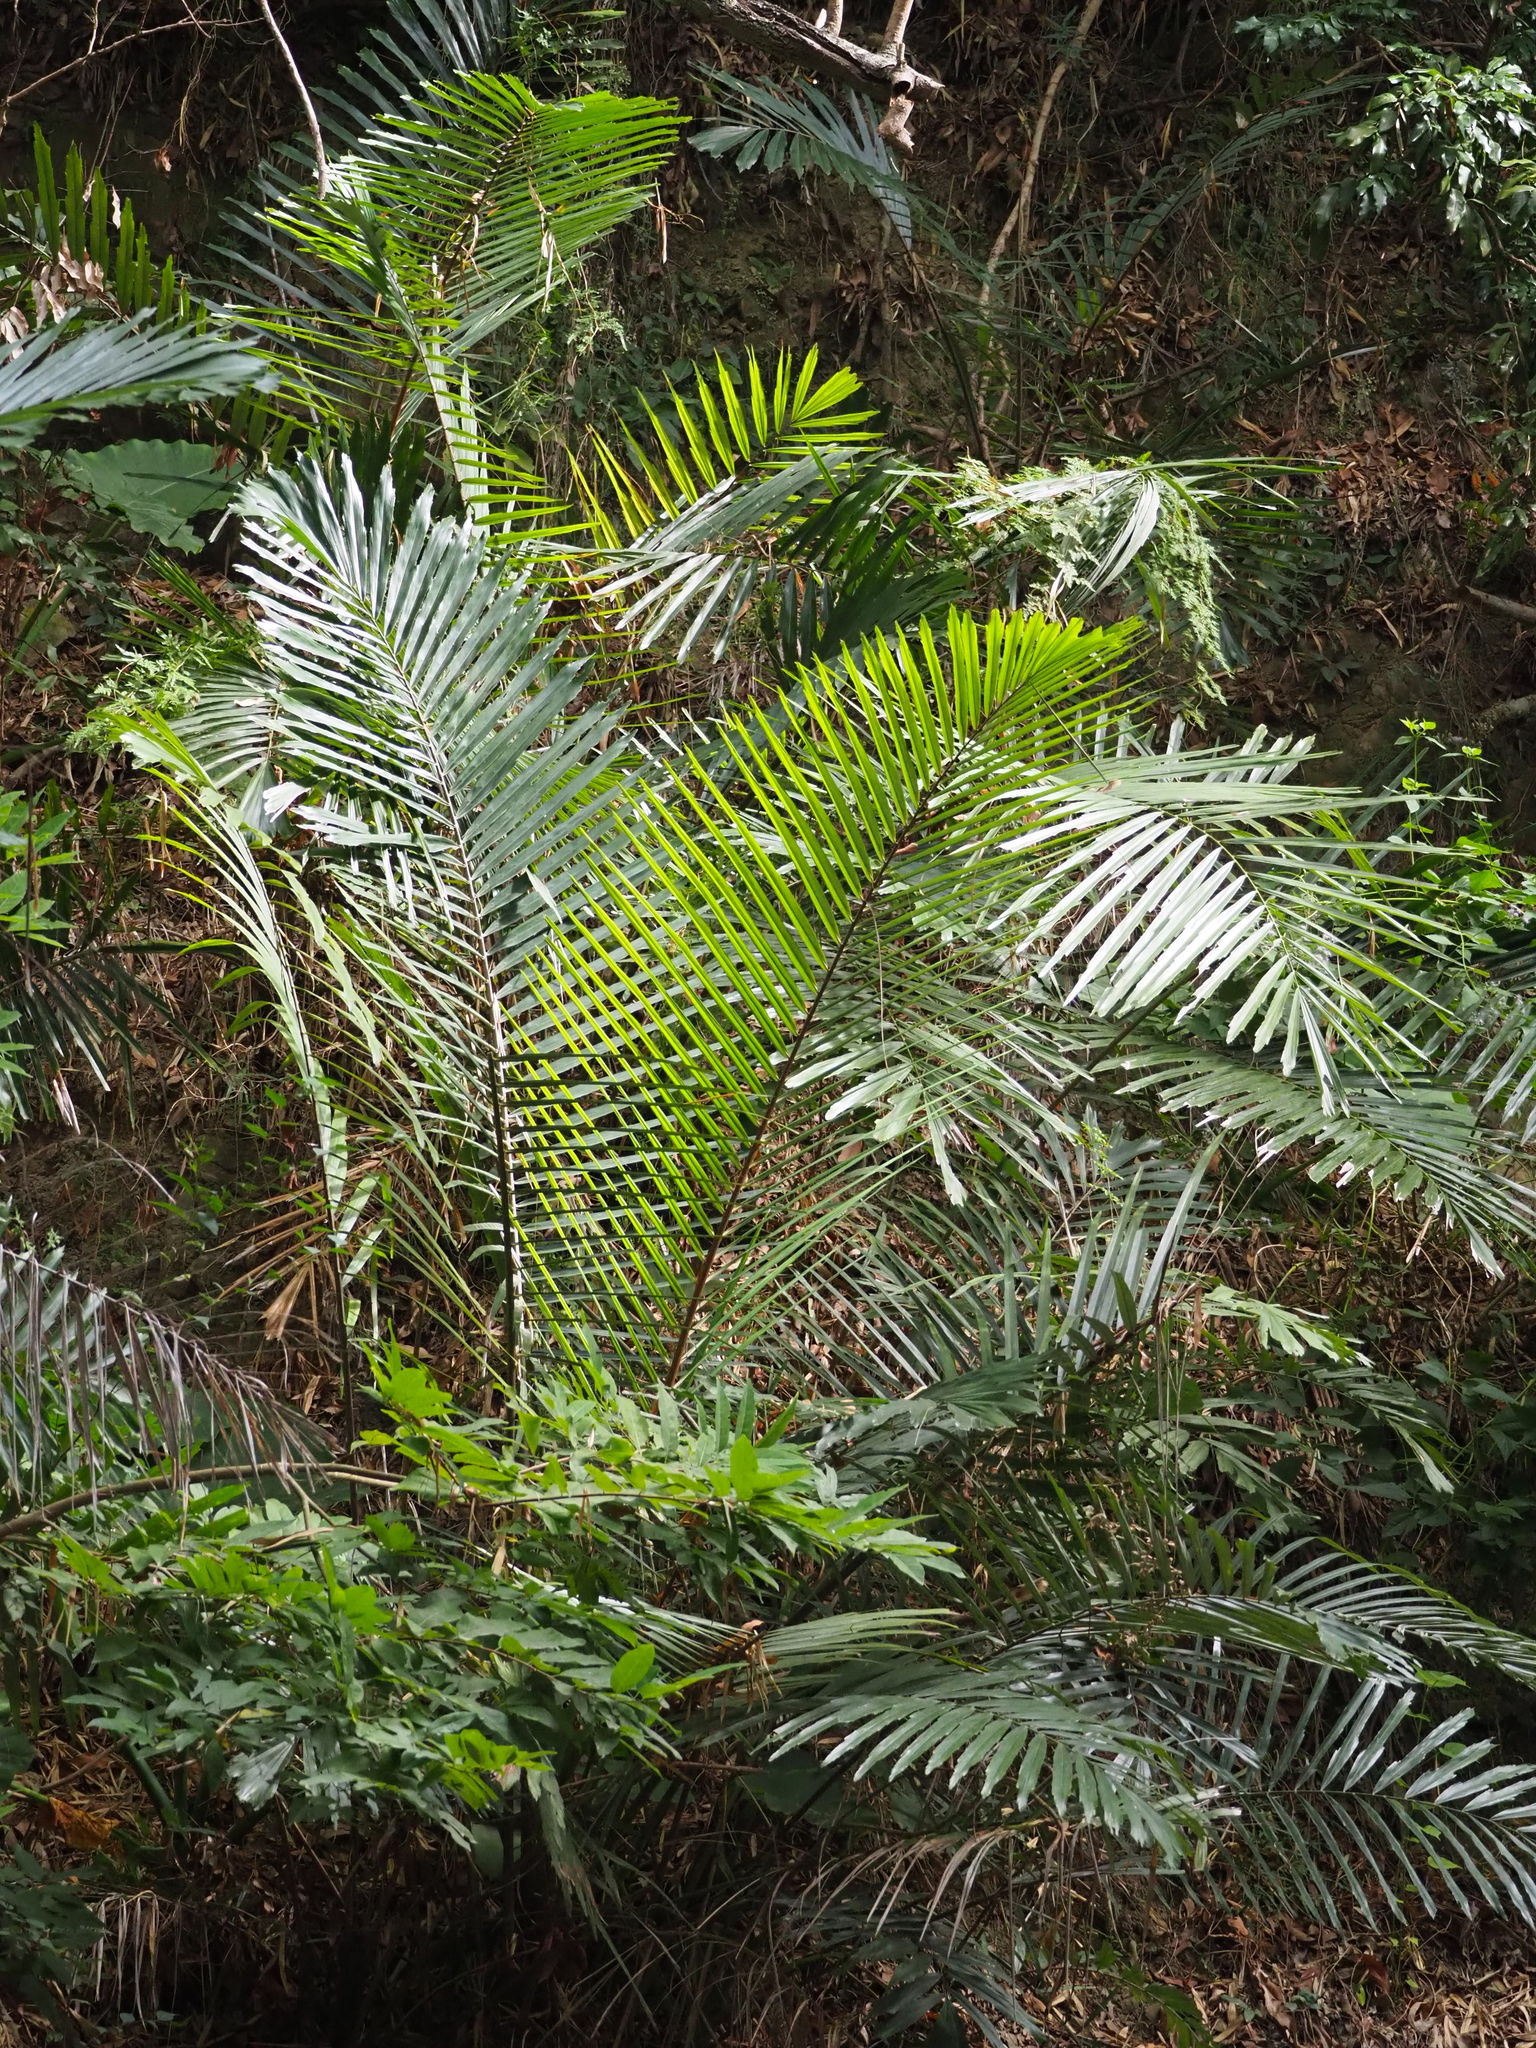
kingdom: Plantae
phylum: Tracheophyta
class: Liliopsida
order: Arecales
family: Arecaceae
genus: Arenga
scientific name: Arenga engleri
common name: Formosan sugar palm
